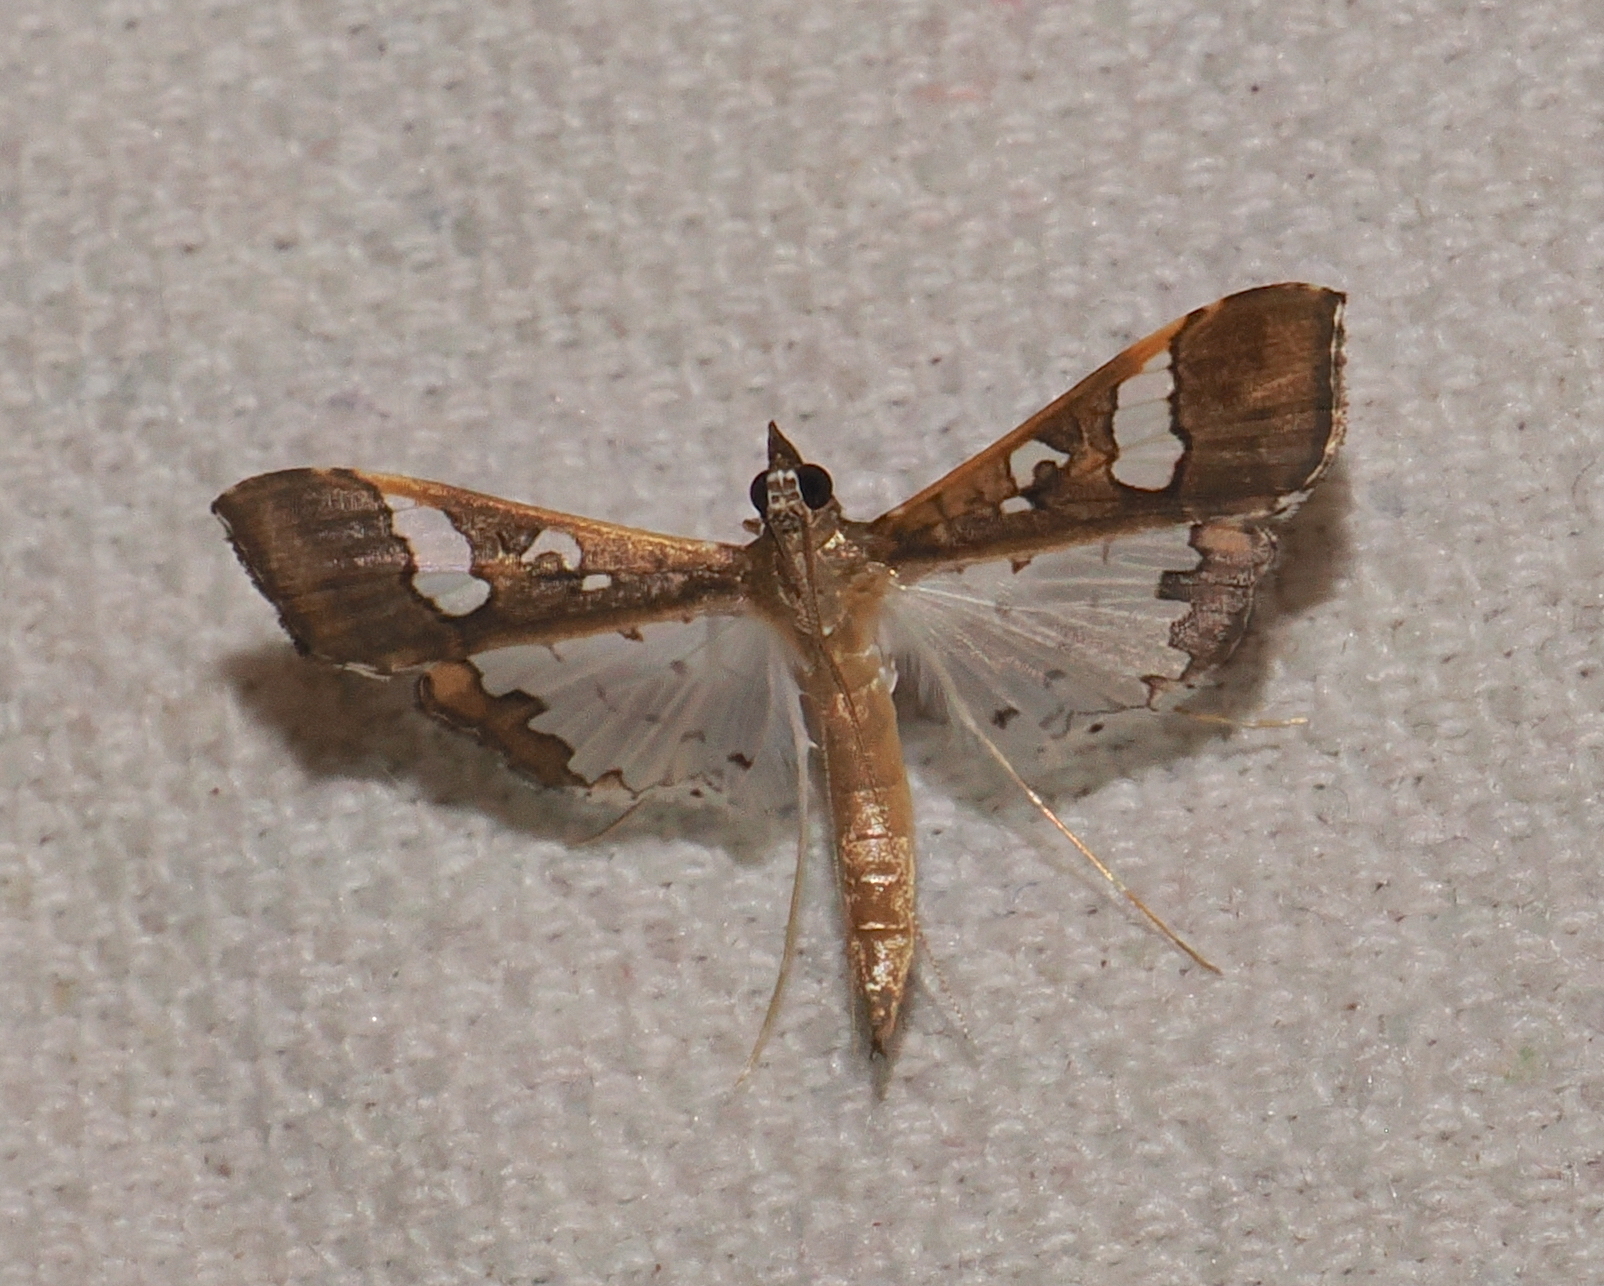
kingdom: Animalia
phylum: Arthropoda
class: Insecta
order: Lepidoptera
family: Crambidae
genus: Maruca
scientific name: Maruca vitrata
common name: Maruca pod borer
